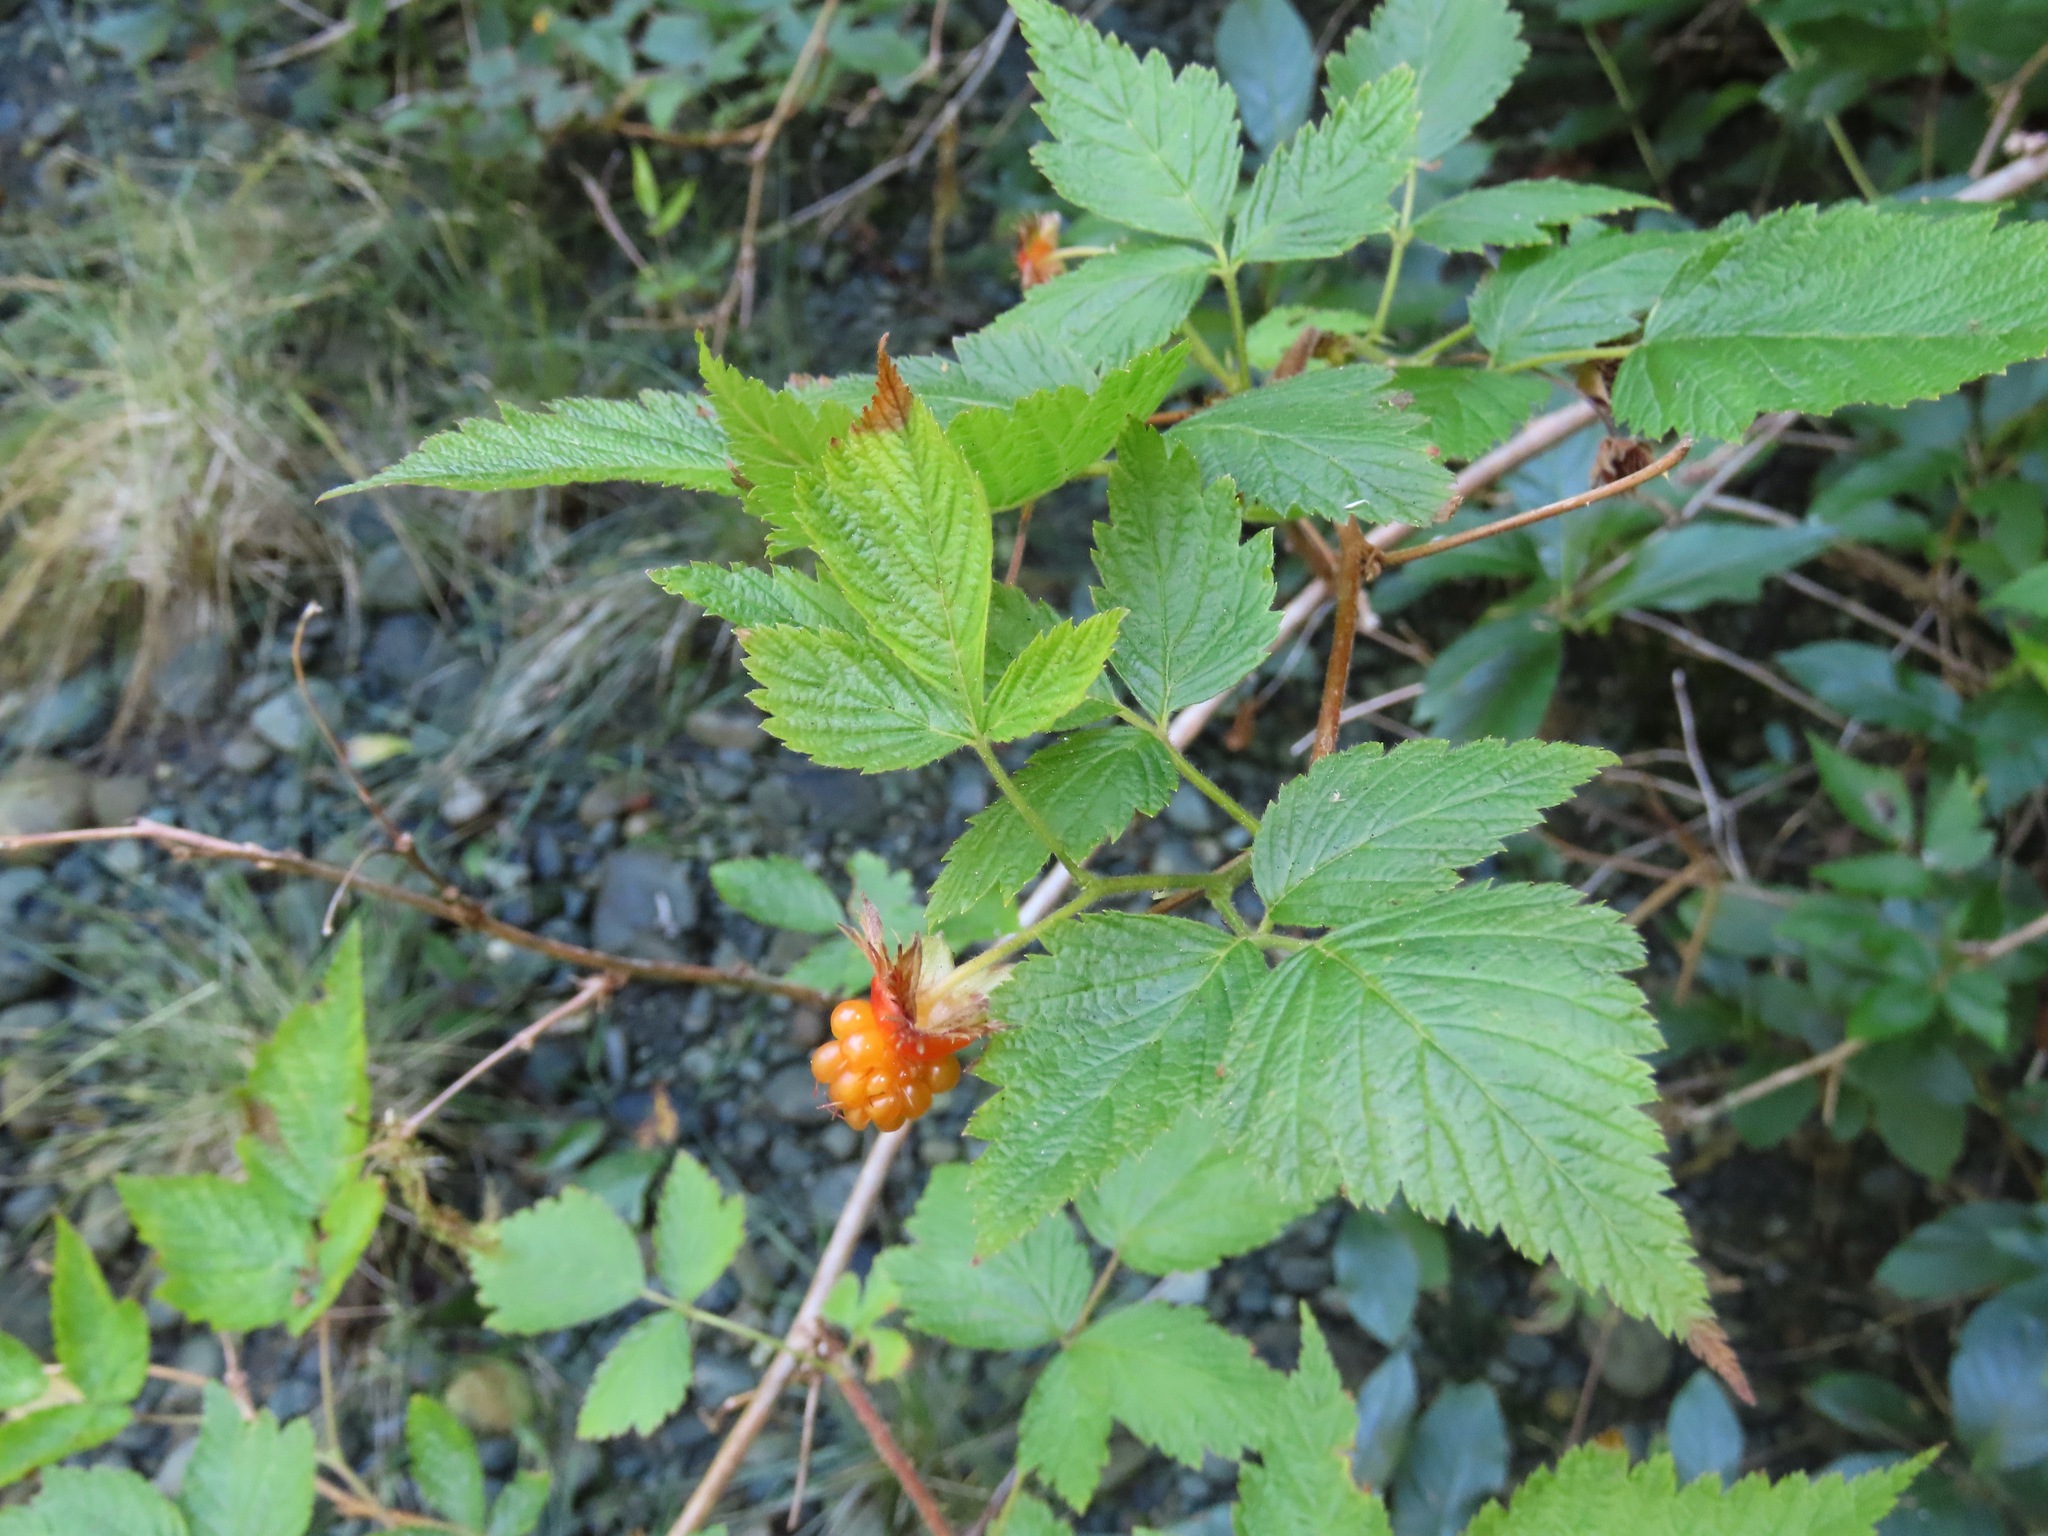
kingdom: Plantae
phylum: Tracheophyta
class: Magnoliopsida
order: Rosales
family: Rosaceae
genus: Rubus
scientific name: Rubus spectabilis
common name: Salmonberry
